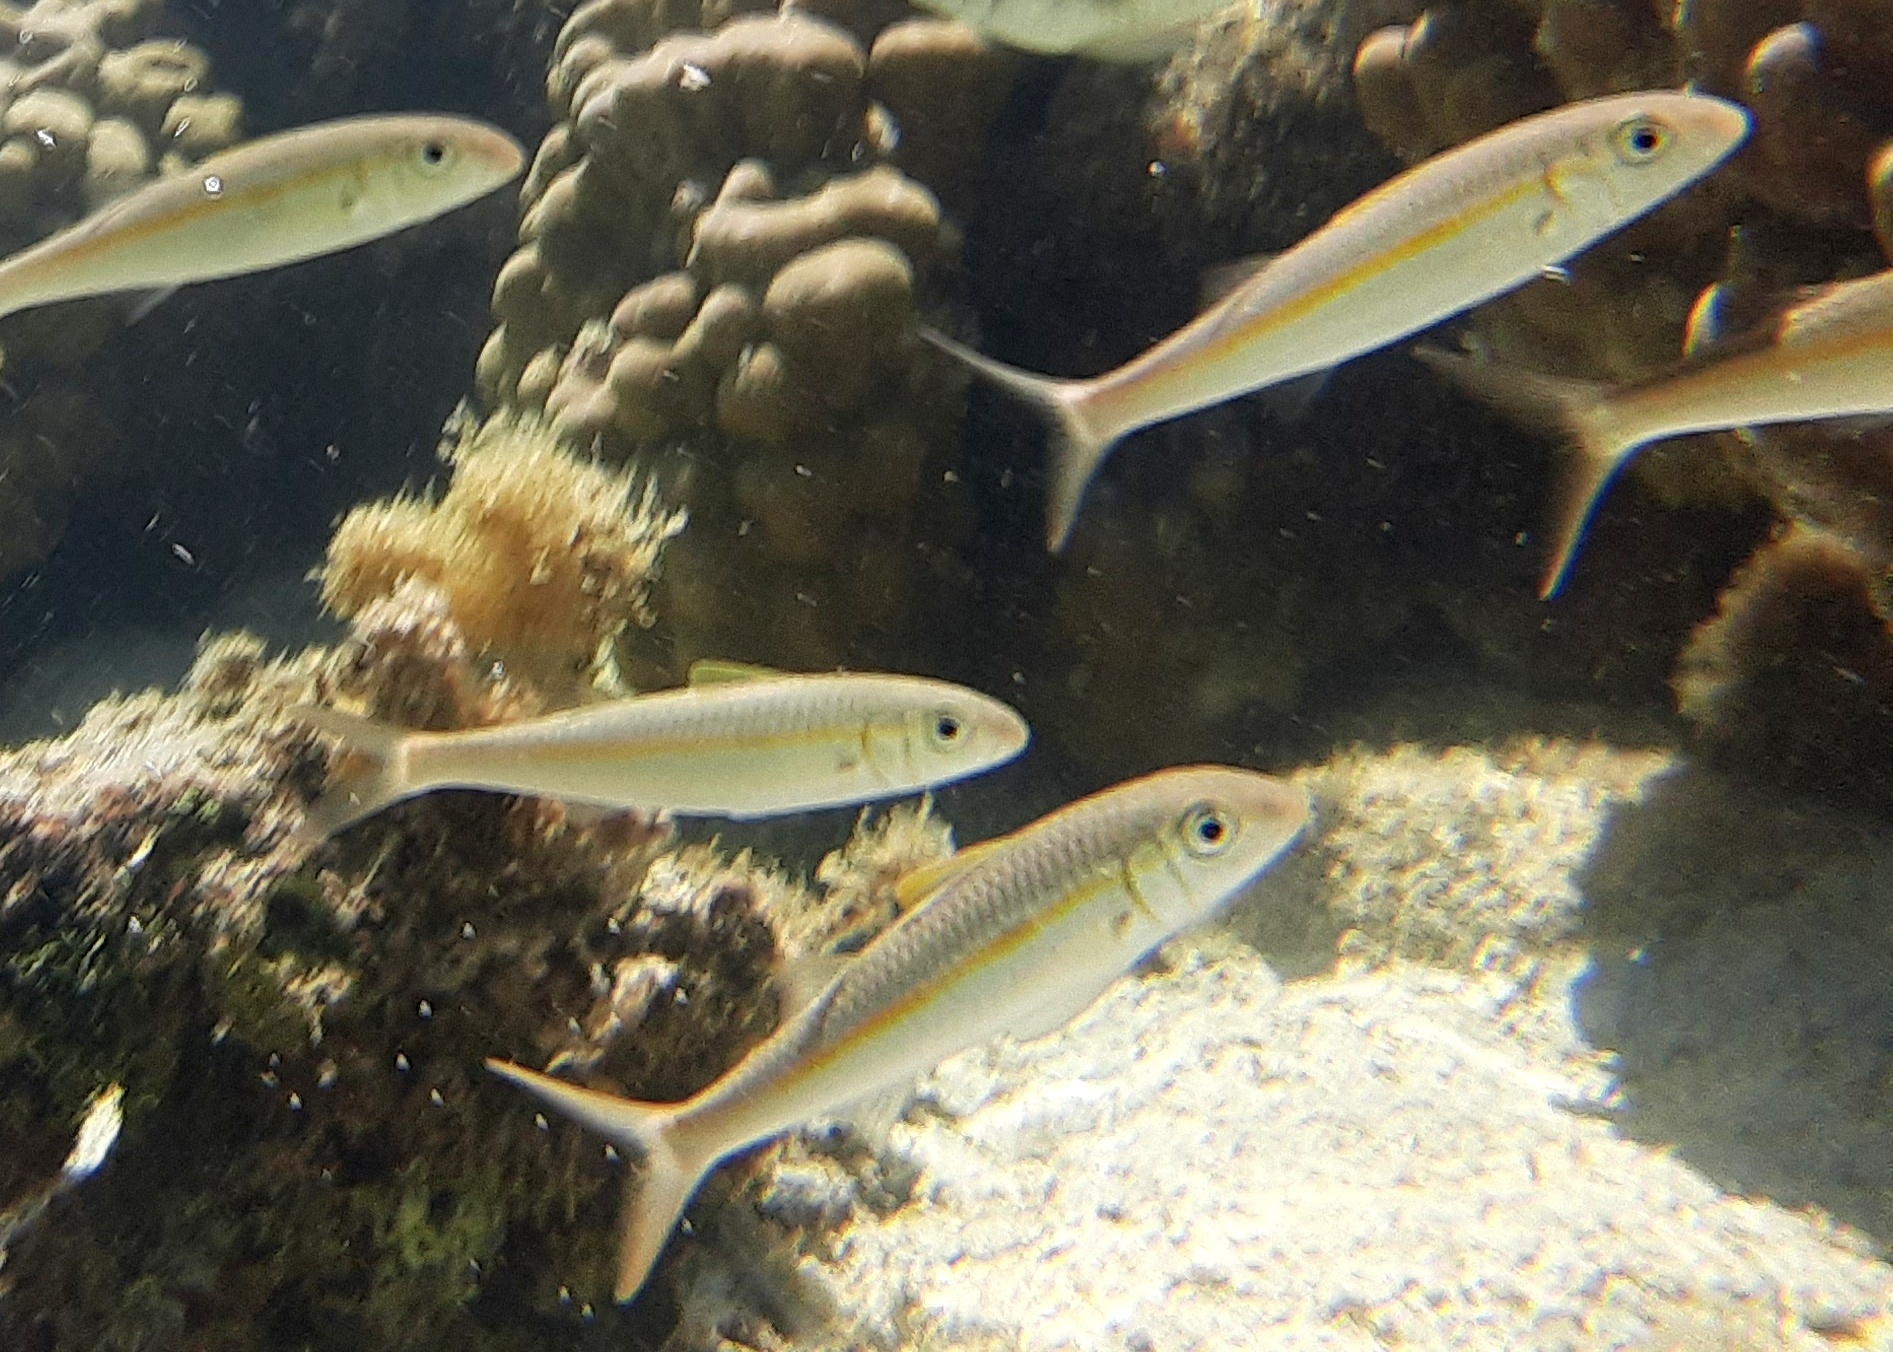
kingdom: Animalia
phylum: Chordata
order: Perciformes
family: Mullidae
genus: Mulloidichthys
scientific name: Mulloidichthys flavolineatus
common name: Yellowstripe goatfish
